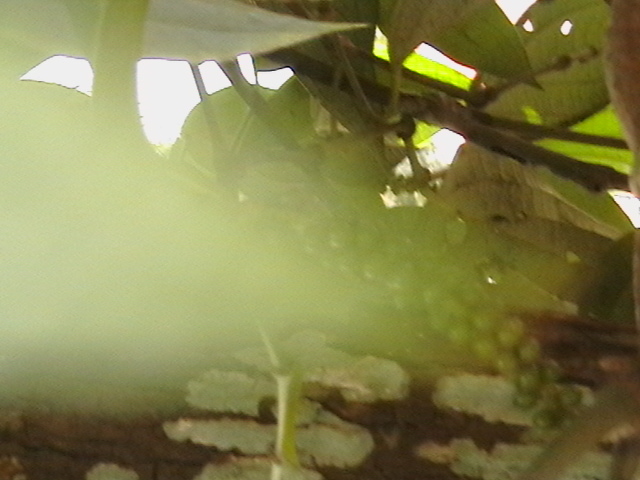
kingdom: Plantae
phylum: Tracheophyta
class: Magnoliopsida
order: Piperales
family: Piperaceae
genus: Piper
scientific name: Piper nigrum
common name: Black pepper
